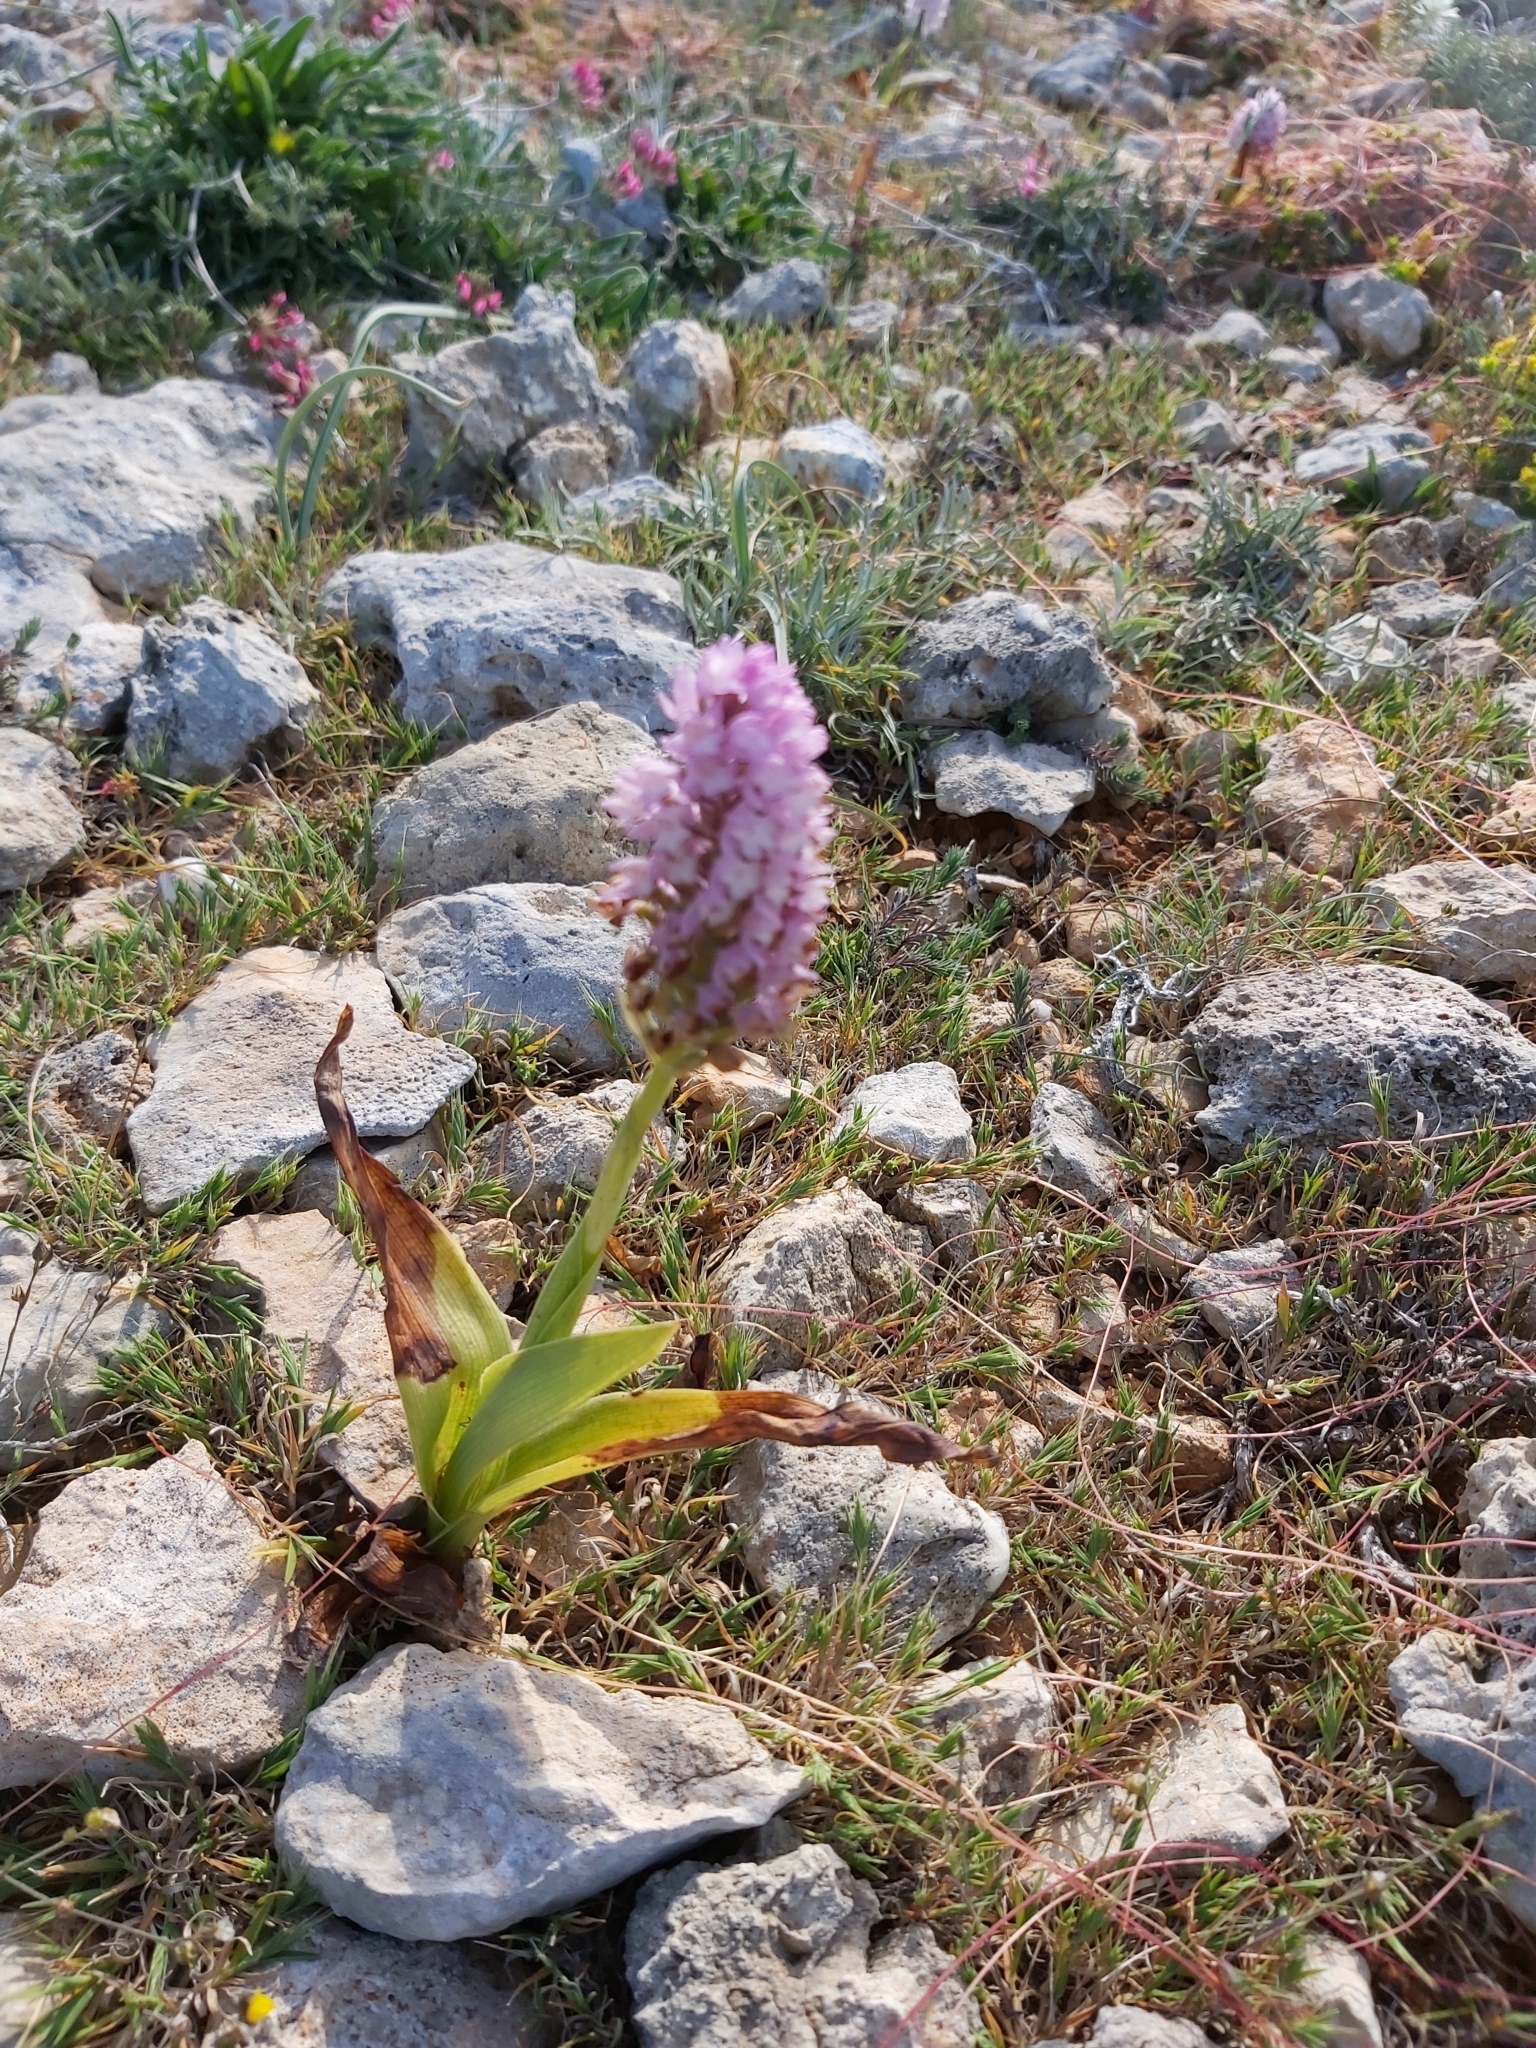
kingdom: Plantae
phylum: Tracheophyta
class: Liliopsida
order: Asparagales
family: Orchidaceae
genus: Anacamptis
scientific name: Anacamptis pyramidalis
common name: Pyramidal orchid
